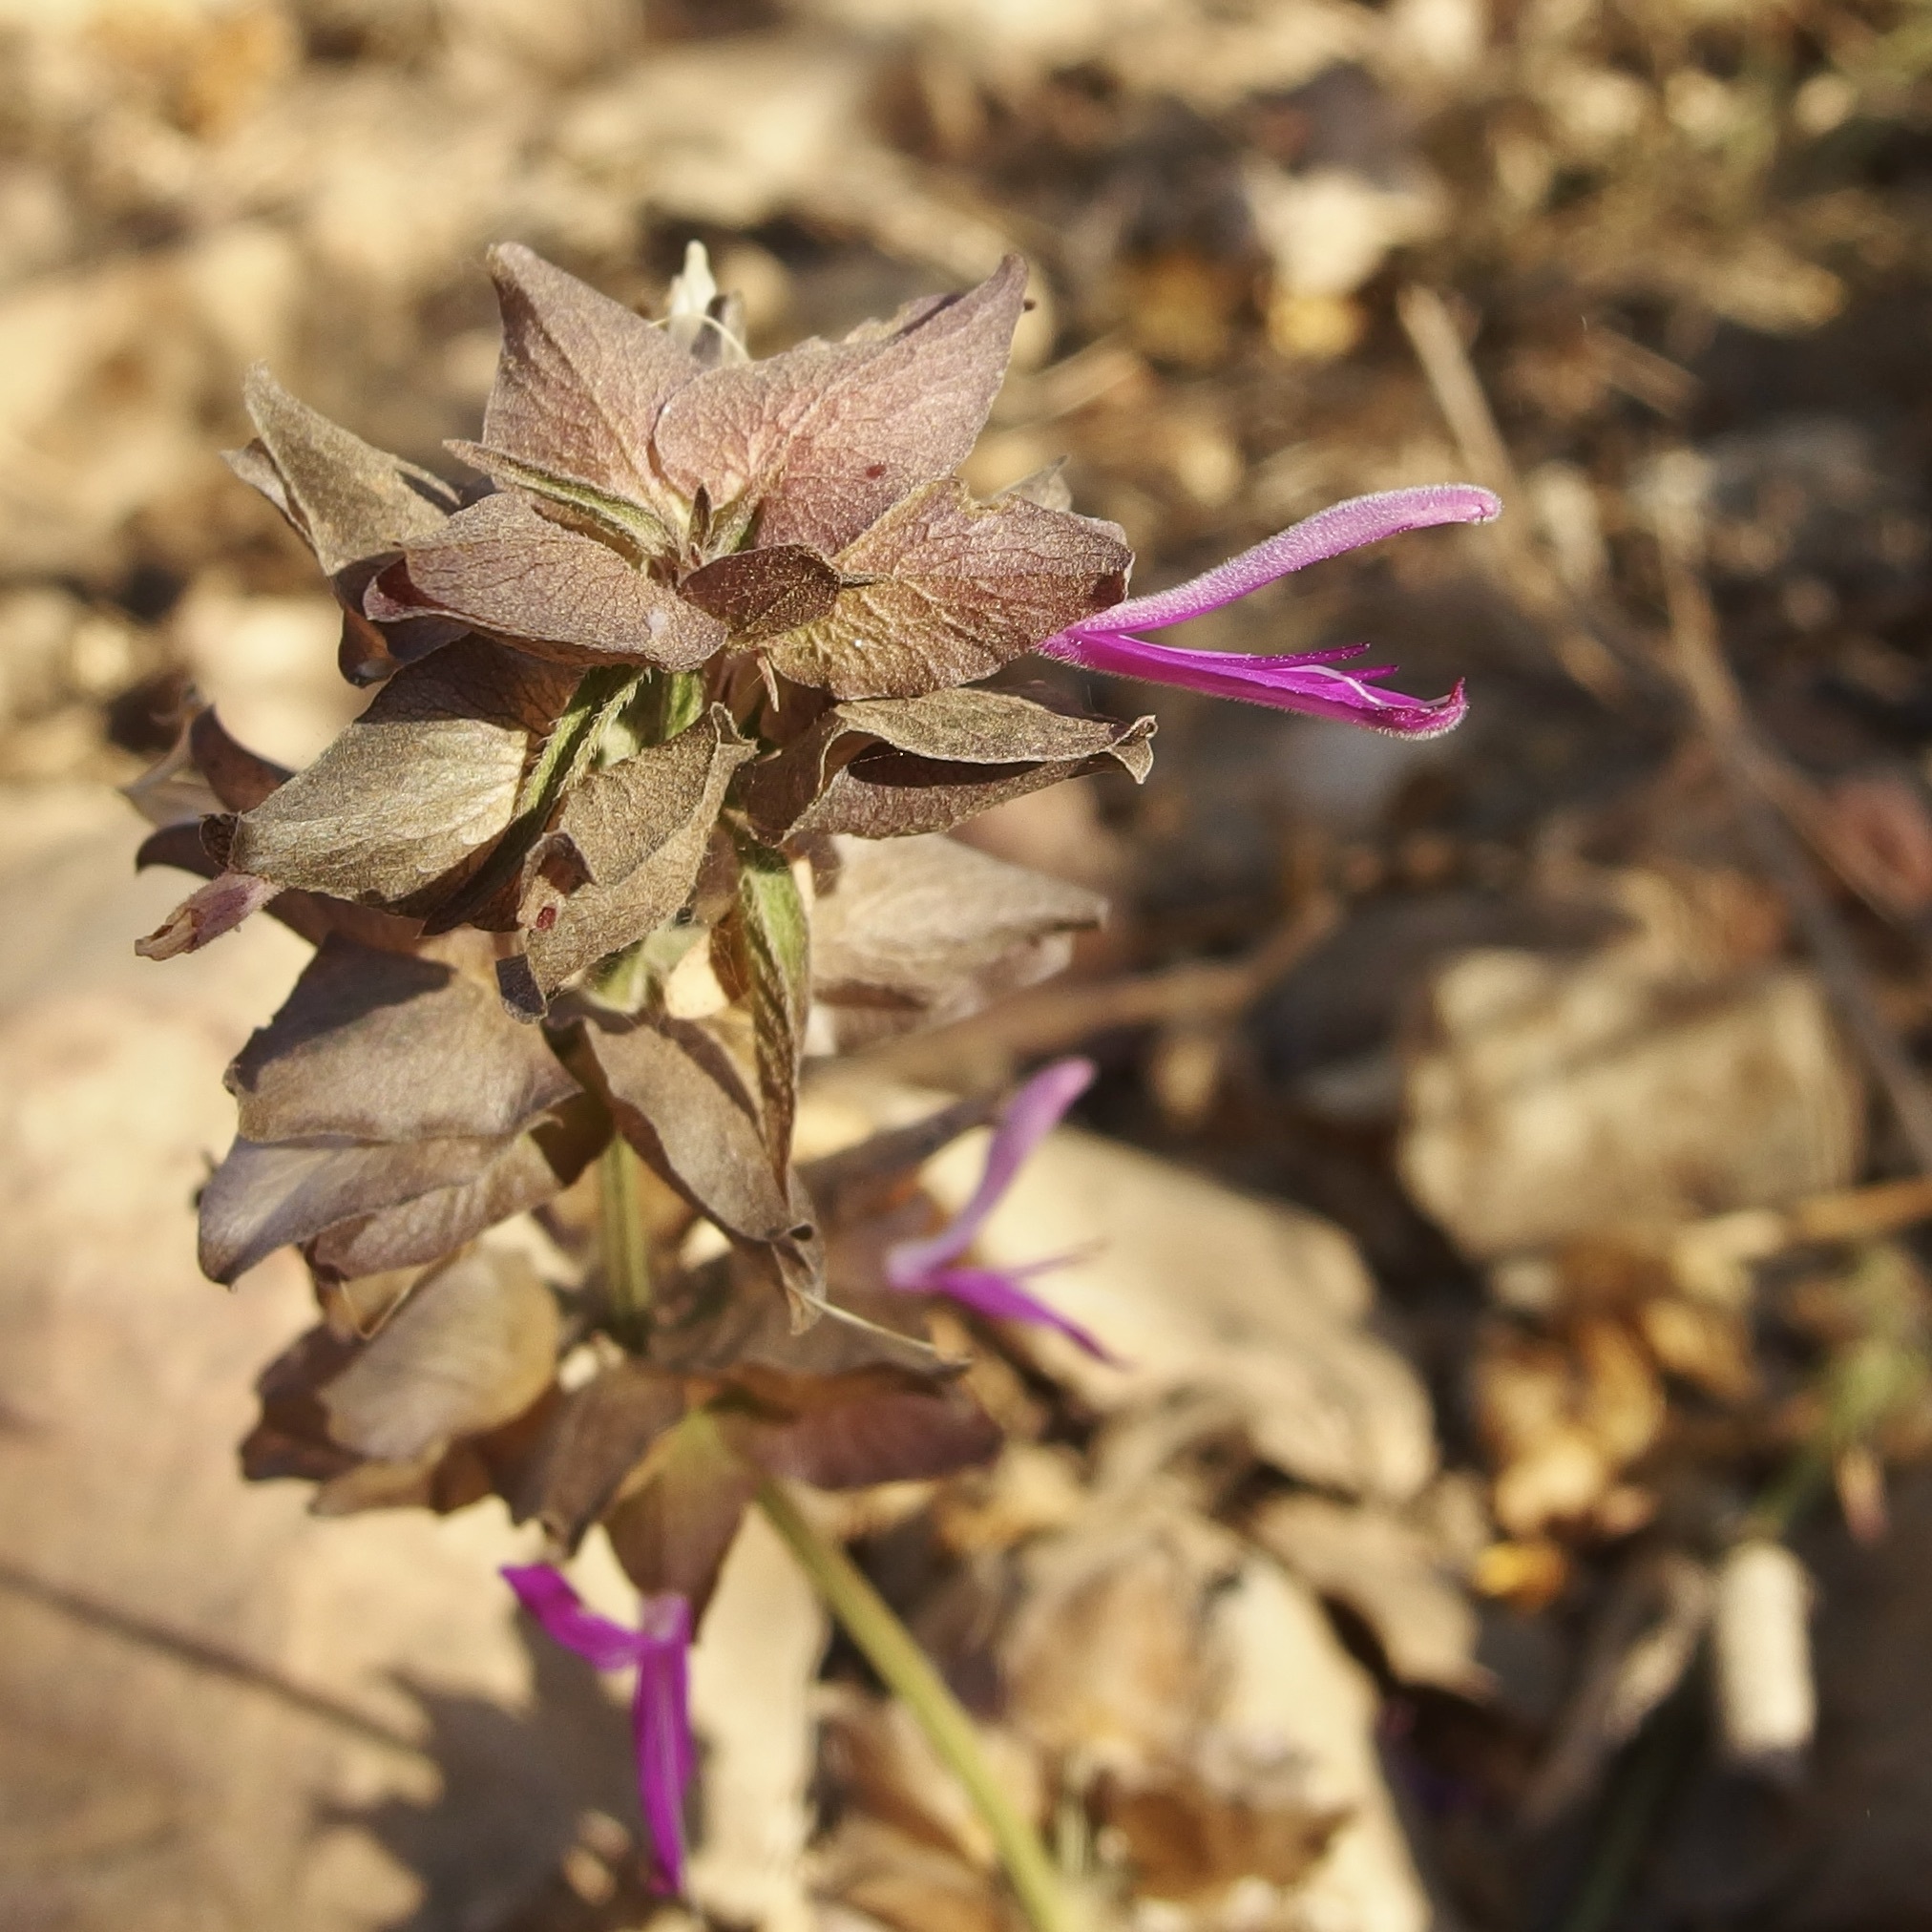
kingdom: Plantae
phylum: Tracheophyta
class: Magnoliopsida
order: Lamiales
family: Acanthaceae
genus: Dicliptera
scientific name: Dicliptera resupinata
